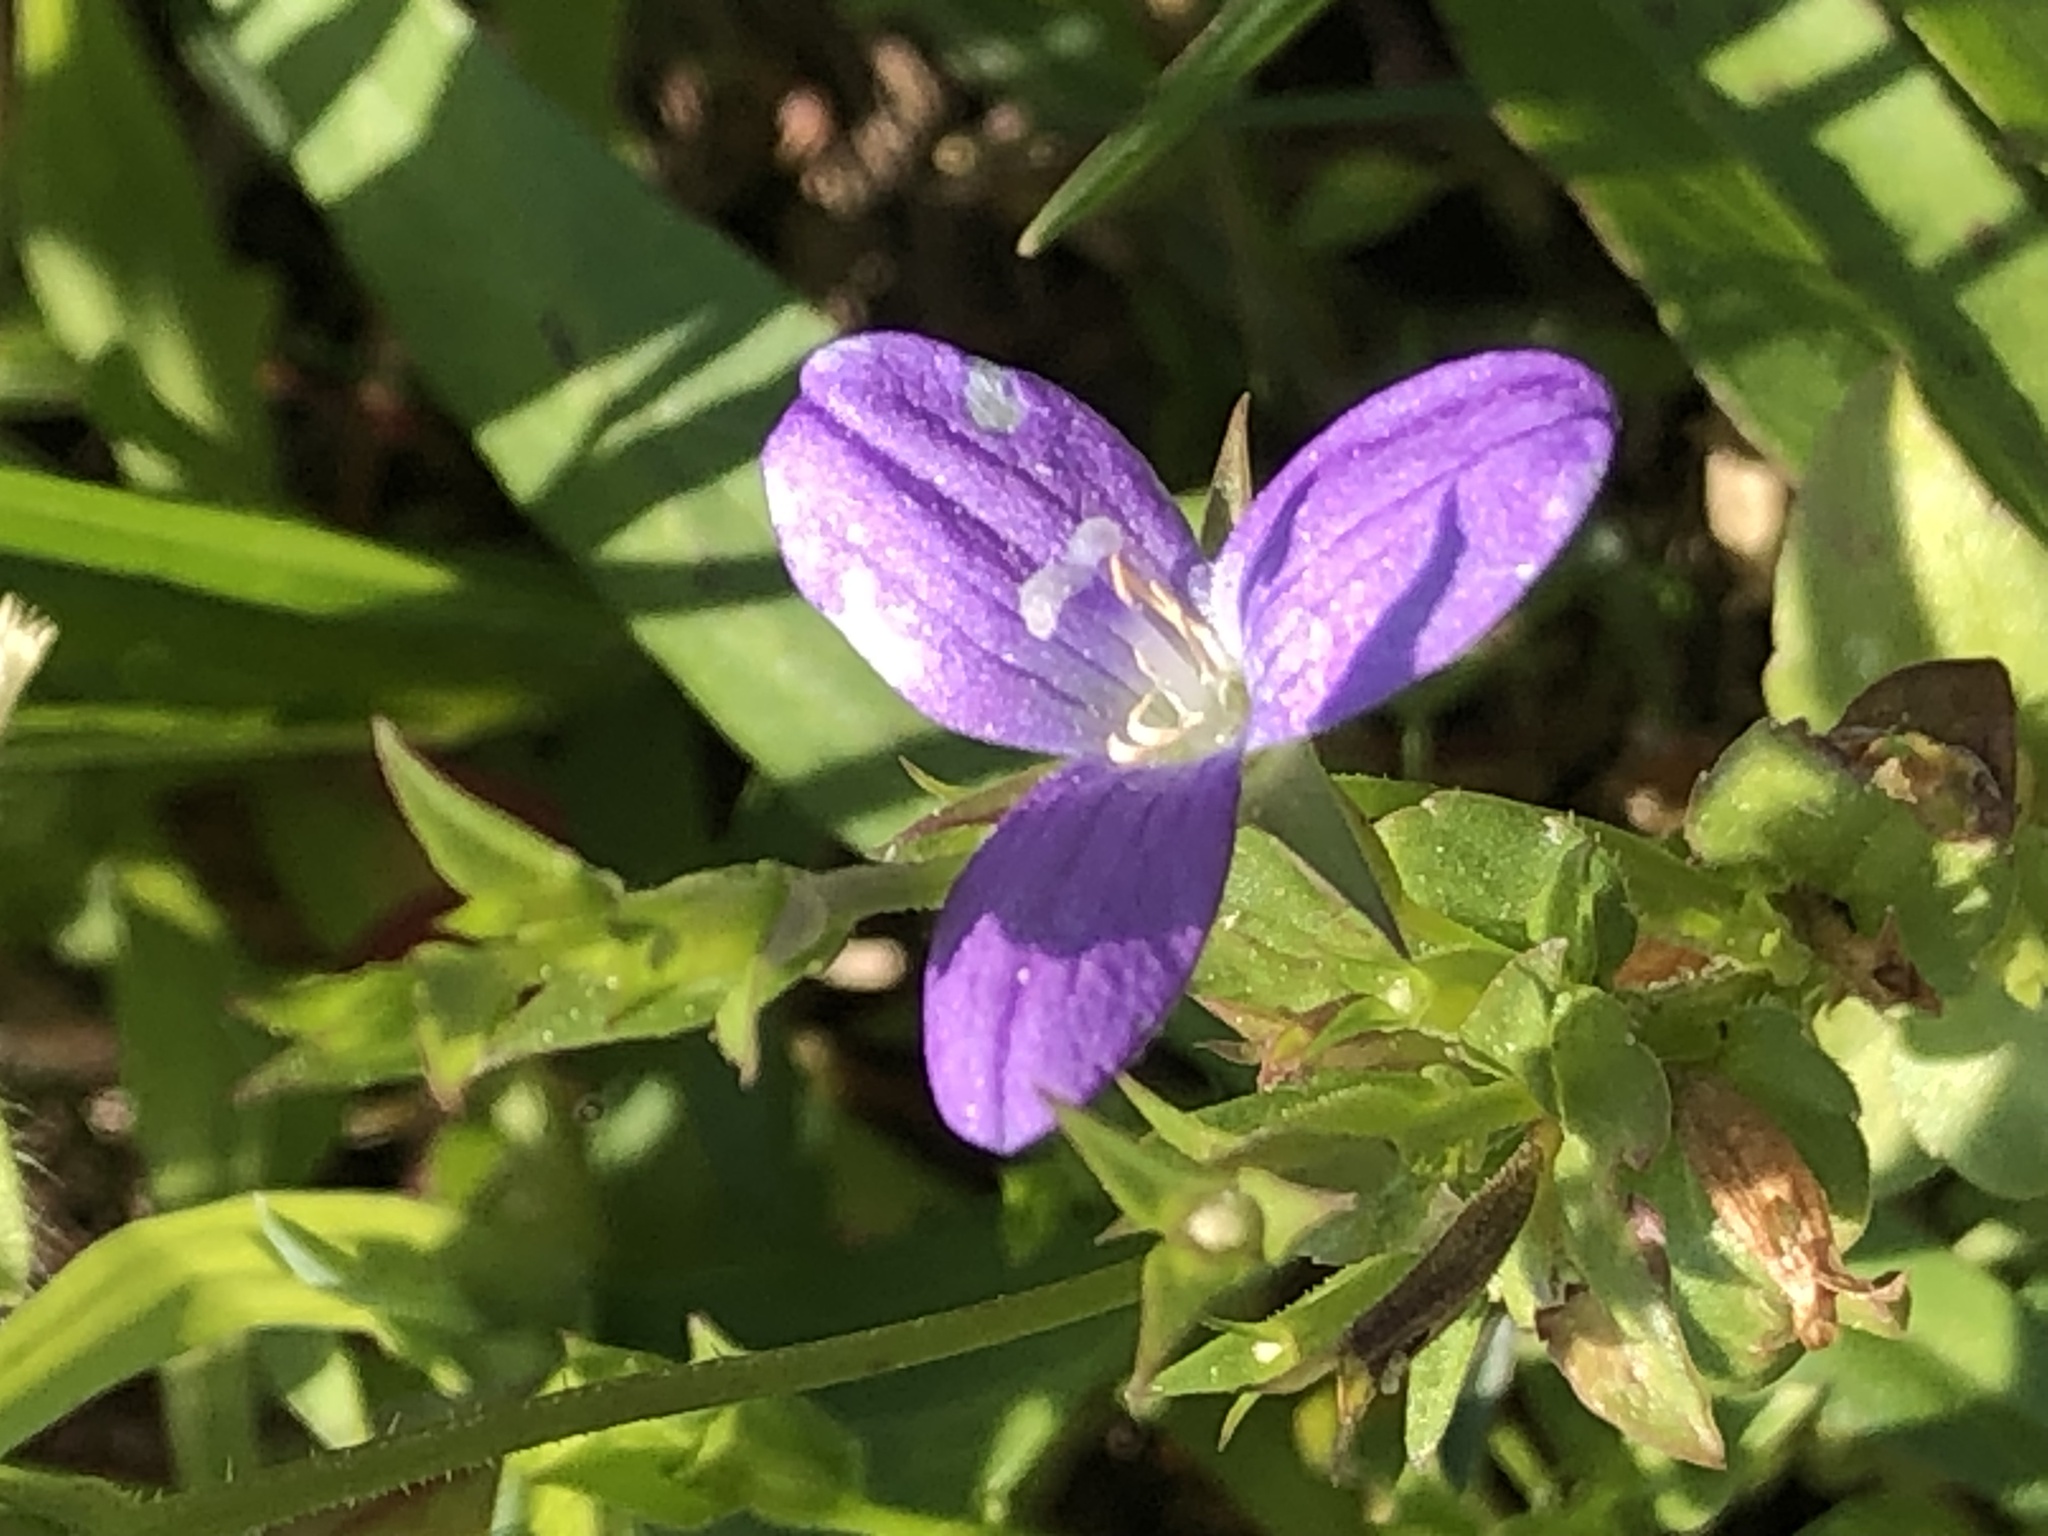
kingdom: Plantae
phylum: Tracheophyta
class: Magnoliopsida
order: Asterales
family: Campanulaceae
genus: Triodanis
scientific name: Triodanis biflora
